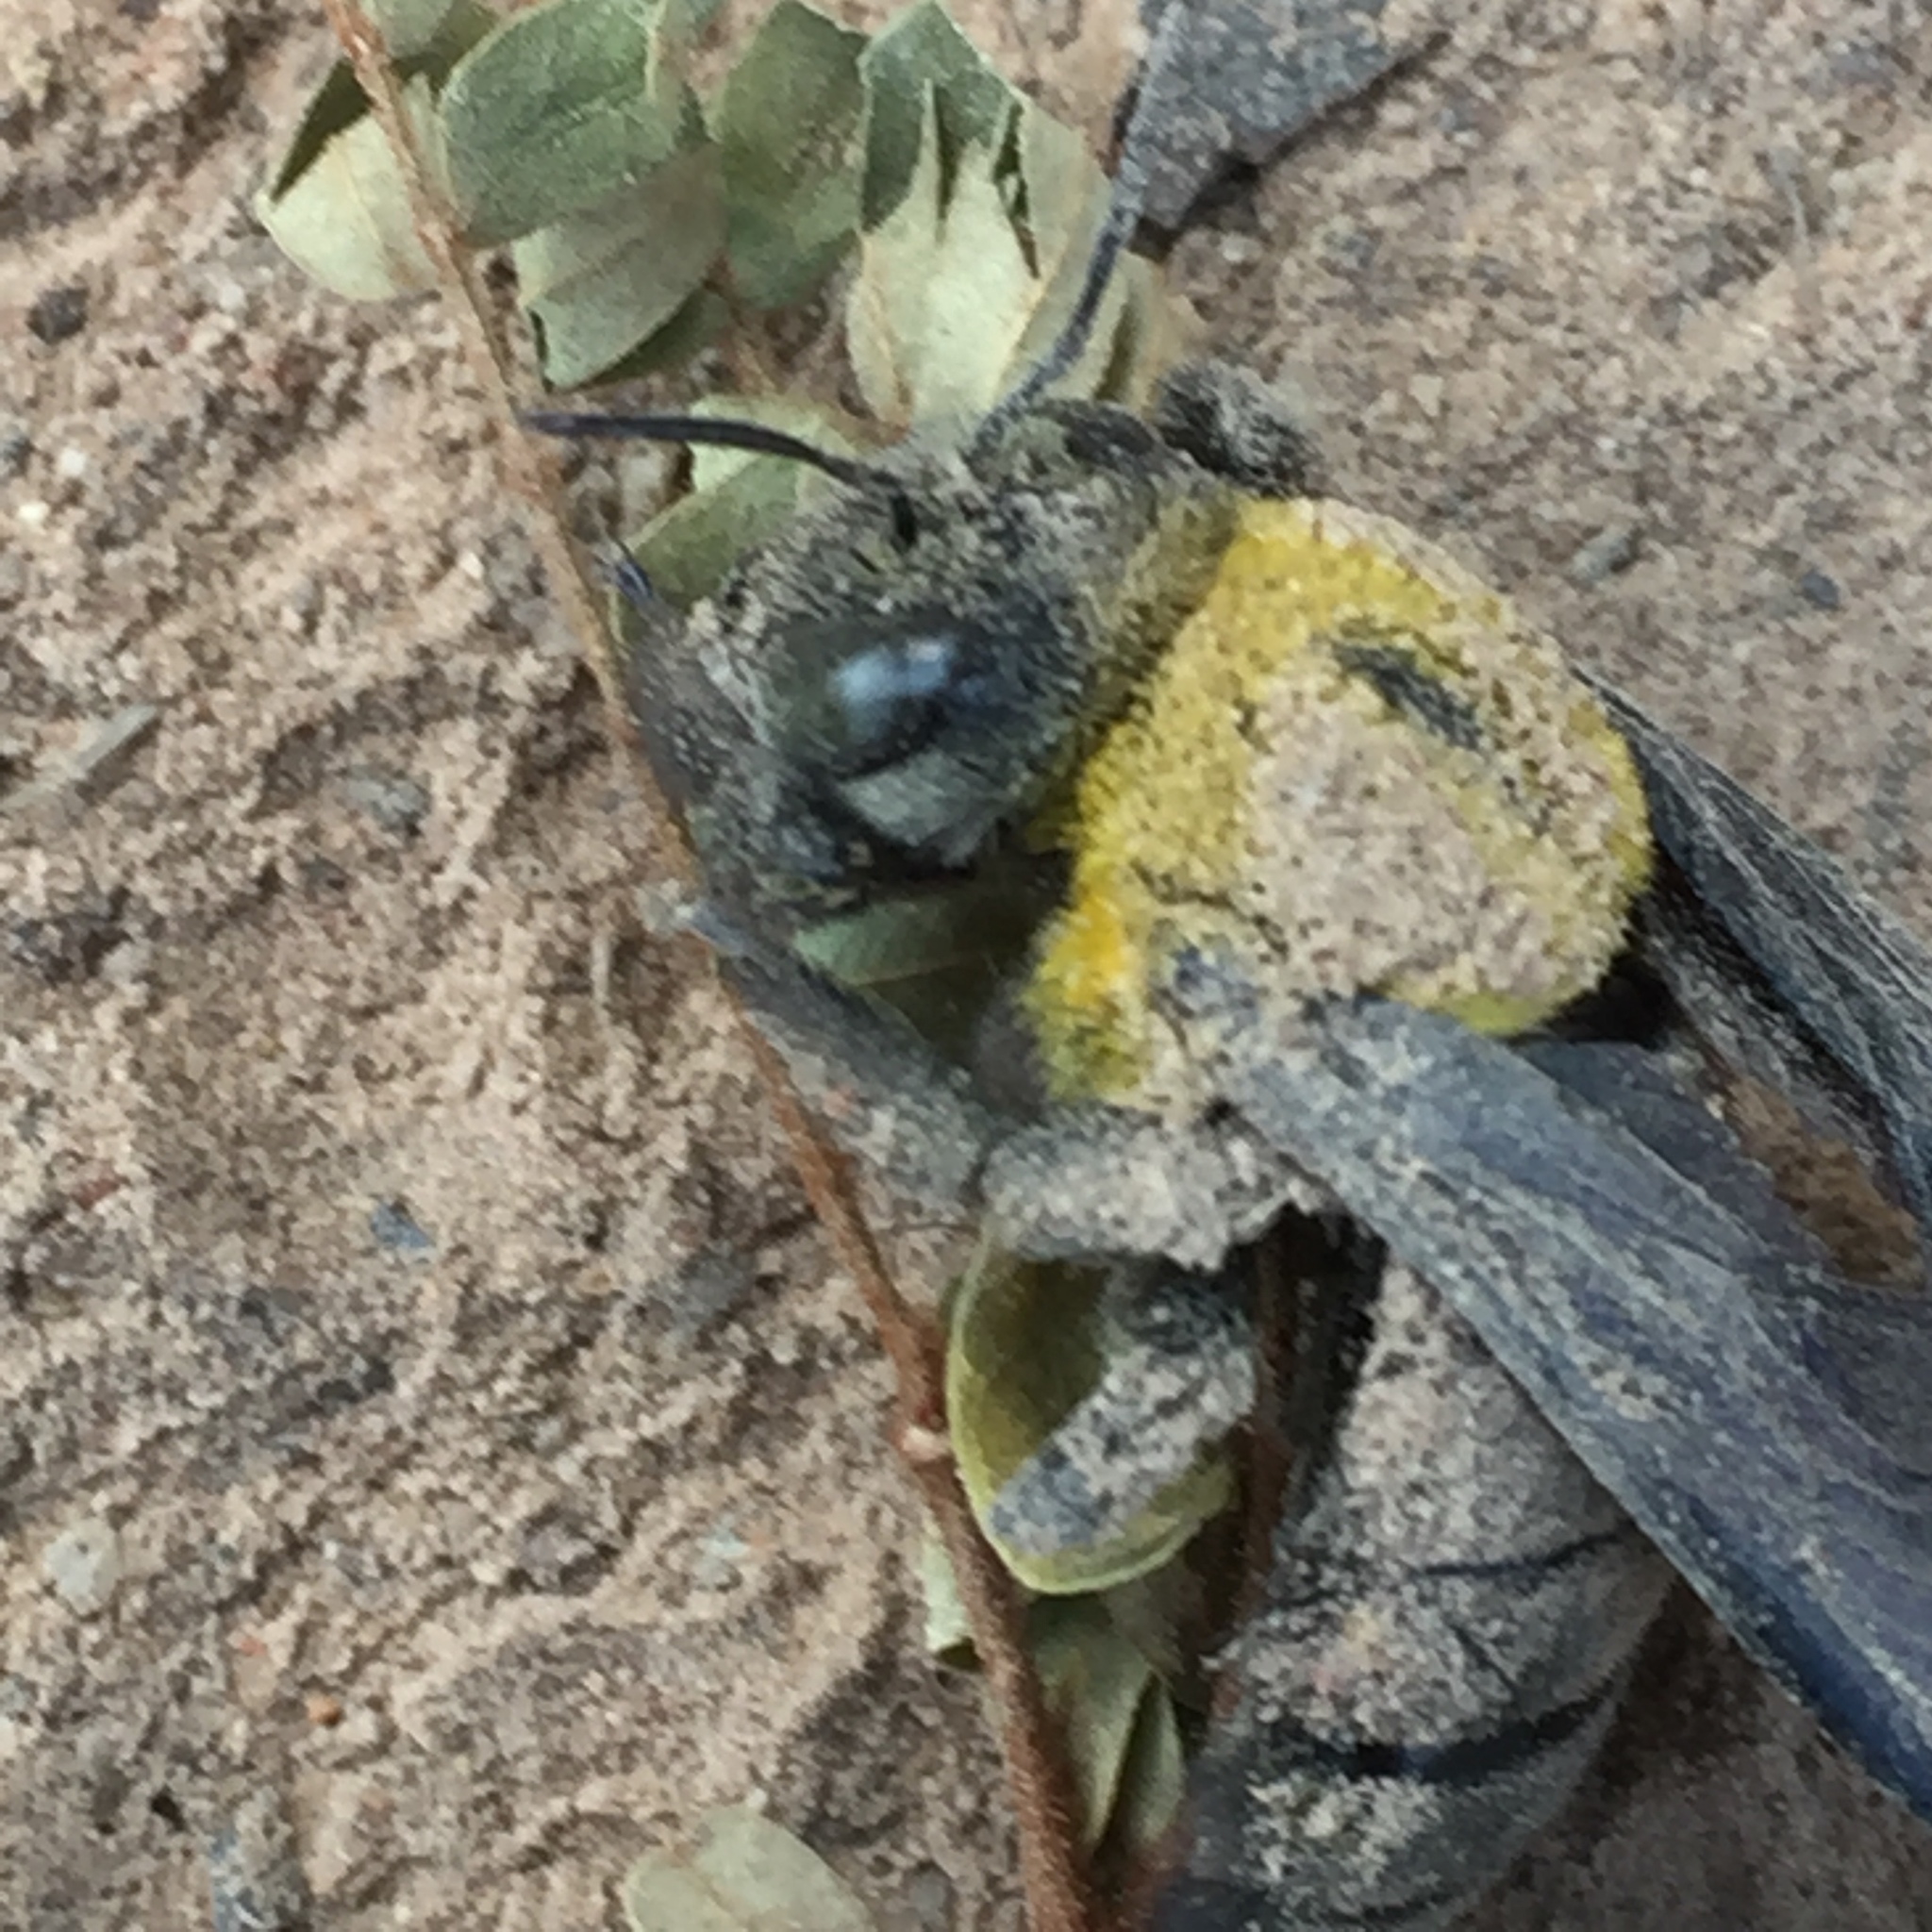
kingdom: Animalia
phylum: Arthropoda
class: Insecta
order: Hymenoptera
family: Apidae
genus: Xylocopa
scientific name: Xylocopa minor
